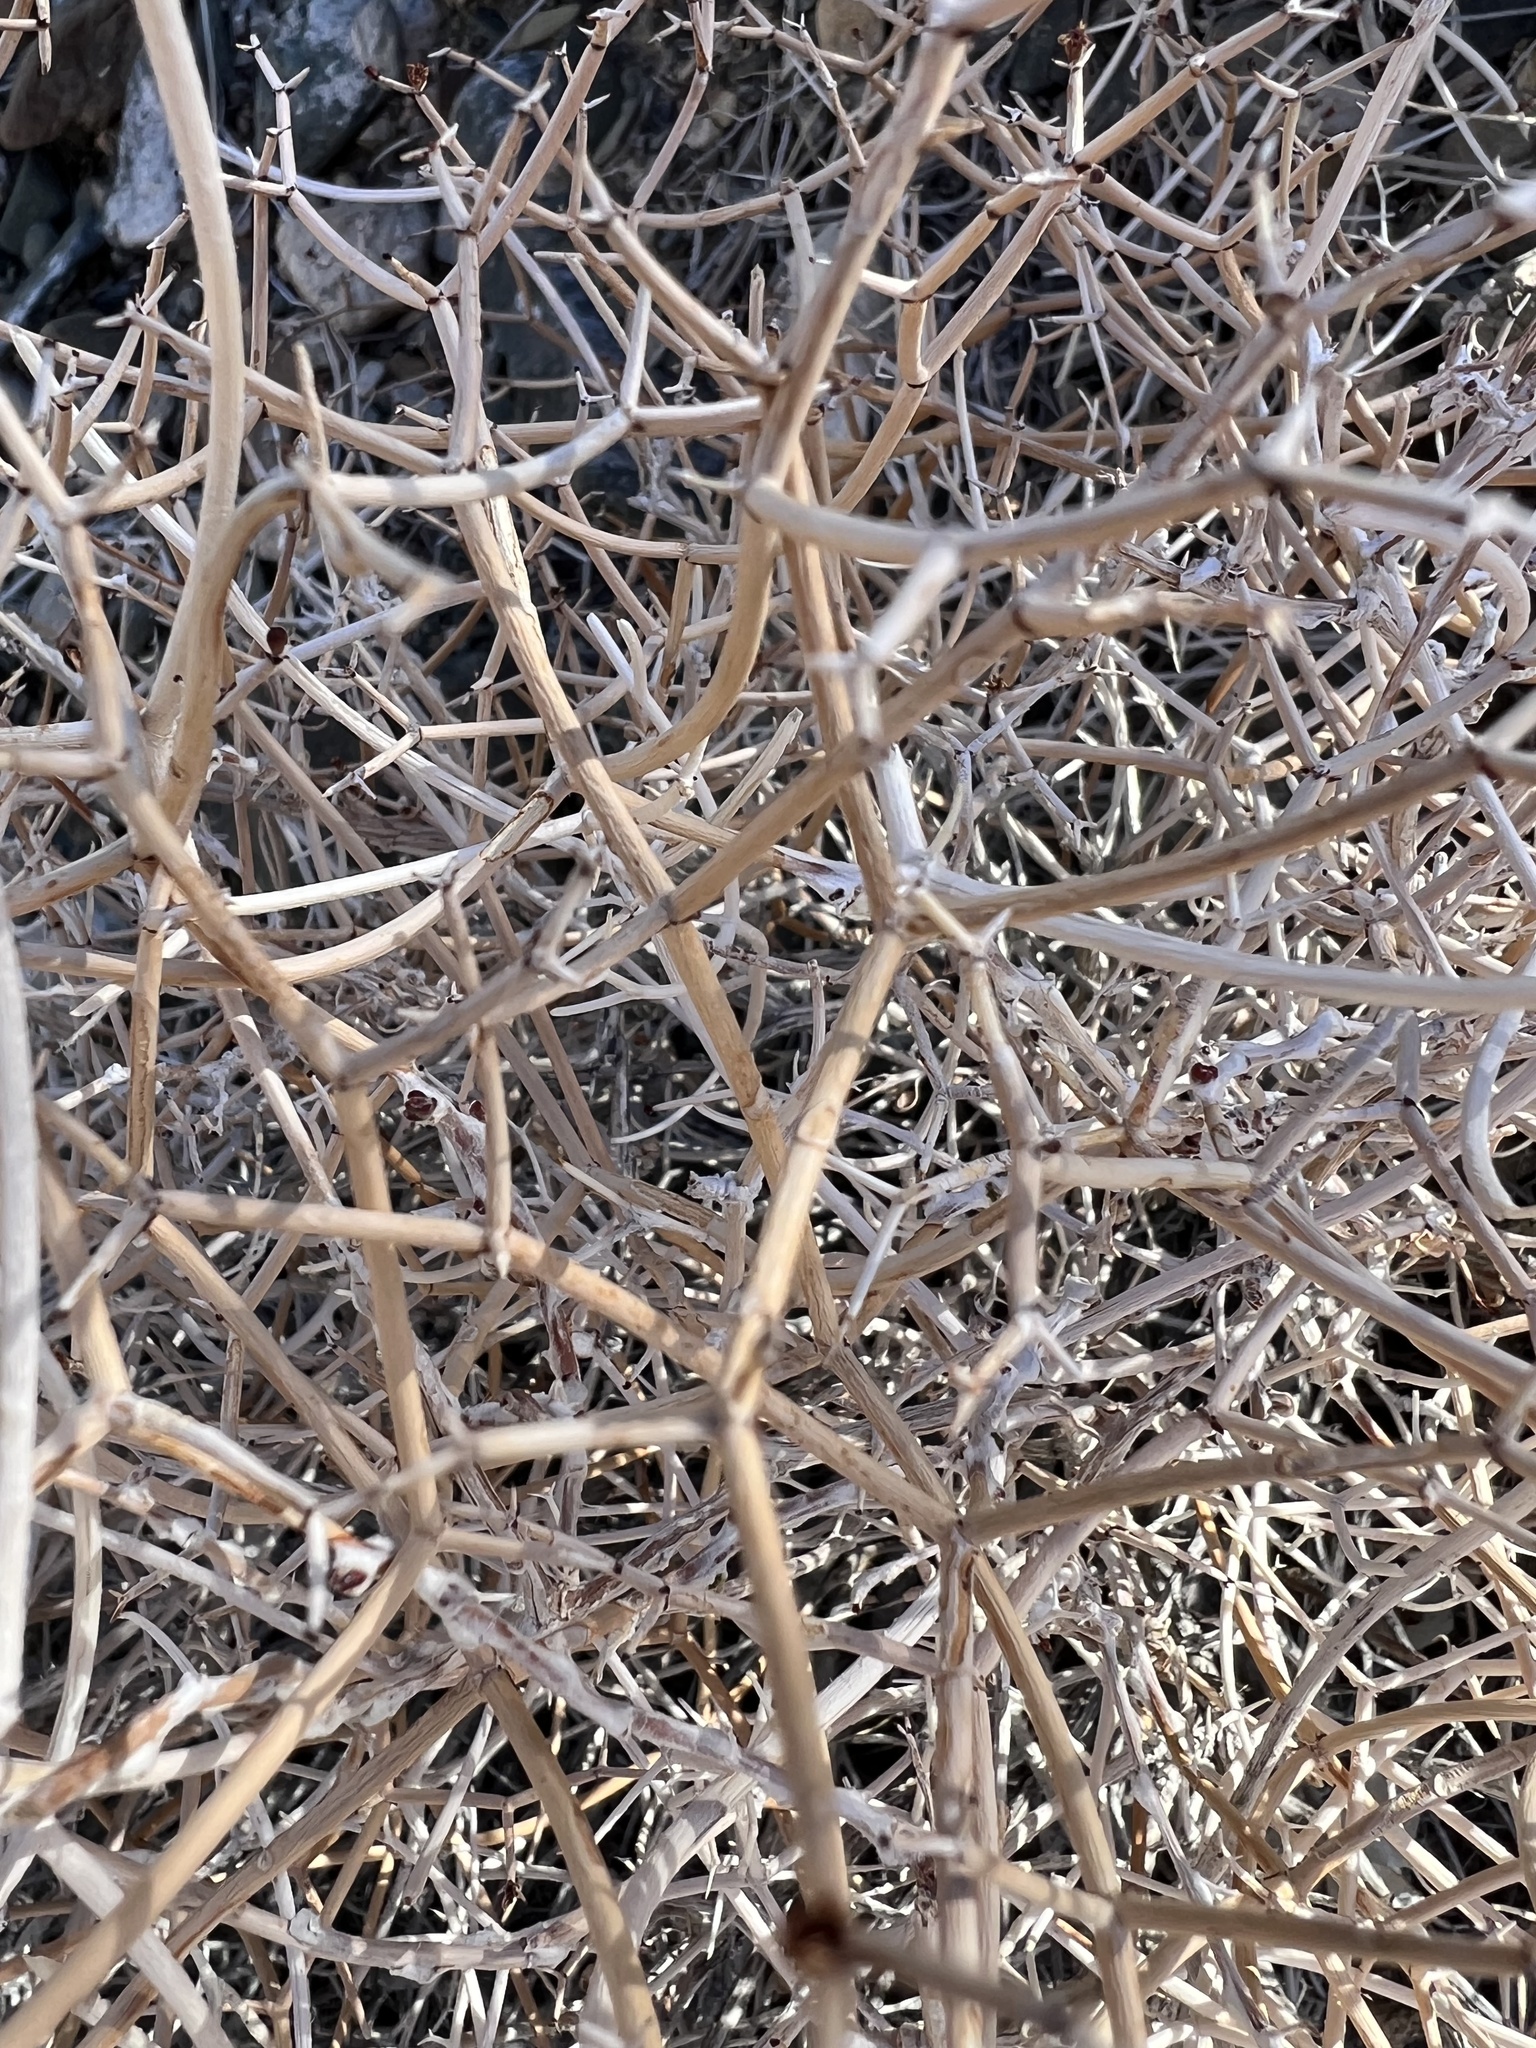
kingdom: Plantae
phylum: Tracheophyta
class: Magnoliopsida
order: Caryophyllales
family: Polygonaceae
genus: Eriogonum
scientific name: Eriogonum heermannii
